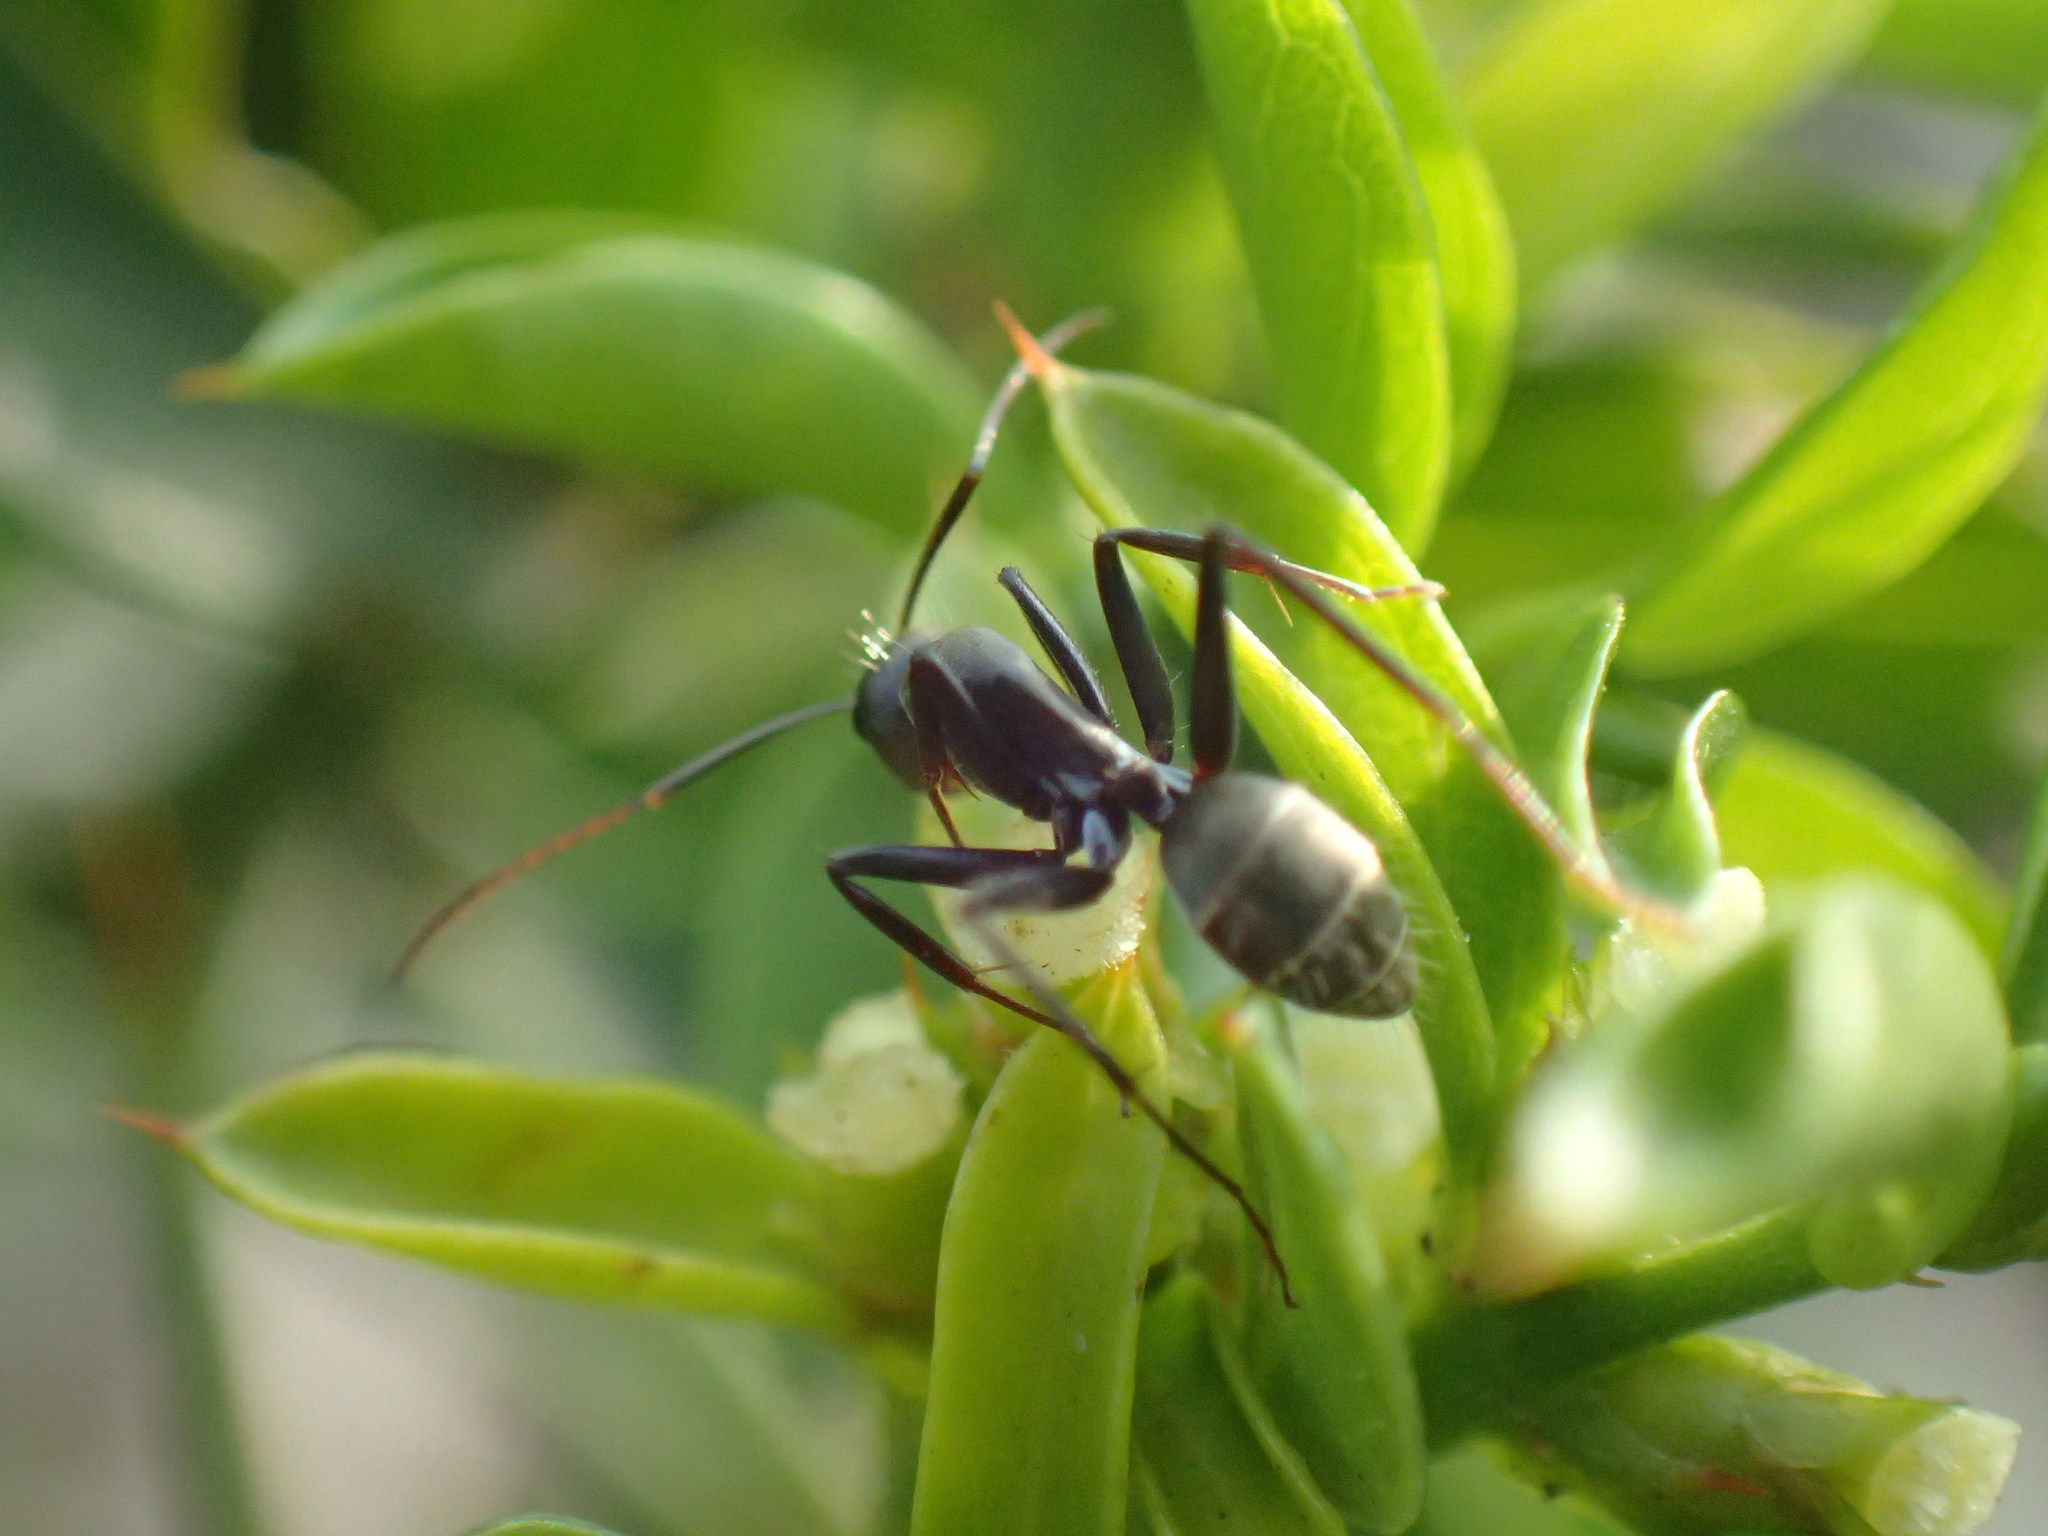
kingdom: Animalia
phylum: Arthropoda
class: Insecta
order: Hymenoptera
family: Formicidae
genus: Camponotus
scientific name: Camponotus cinctellus
